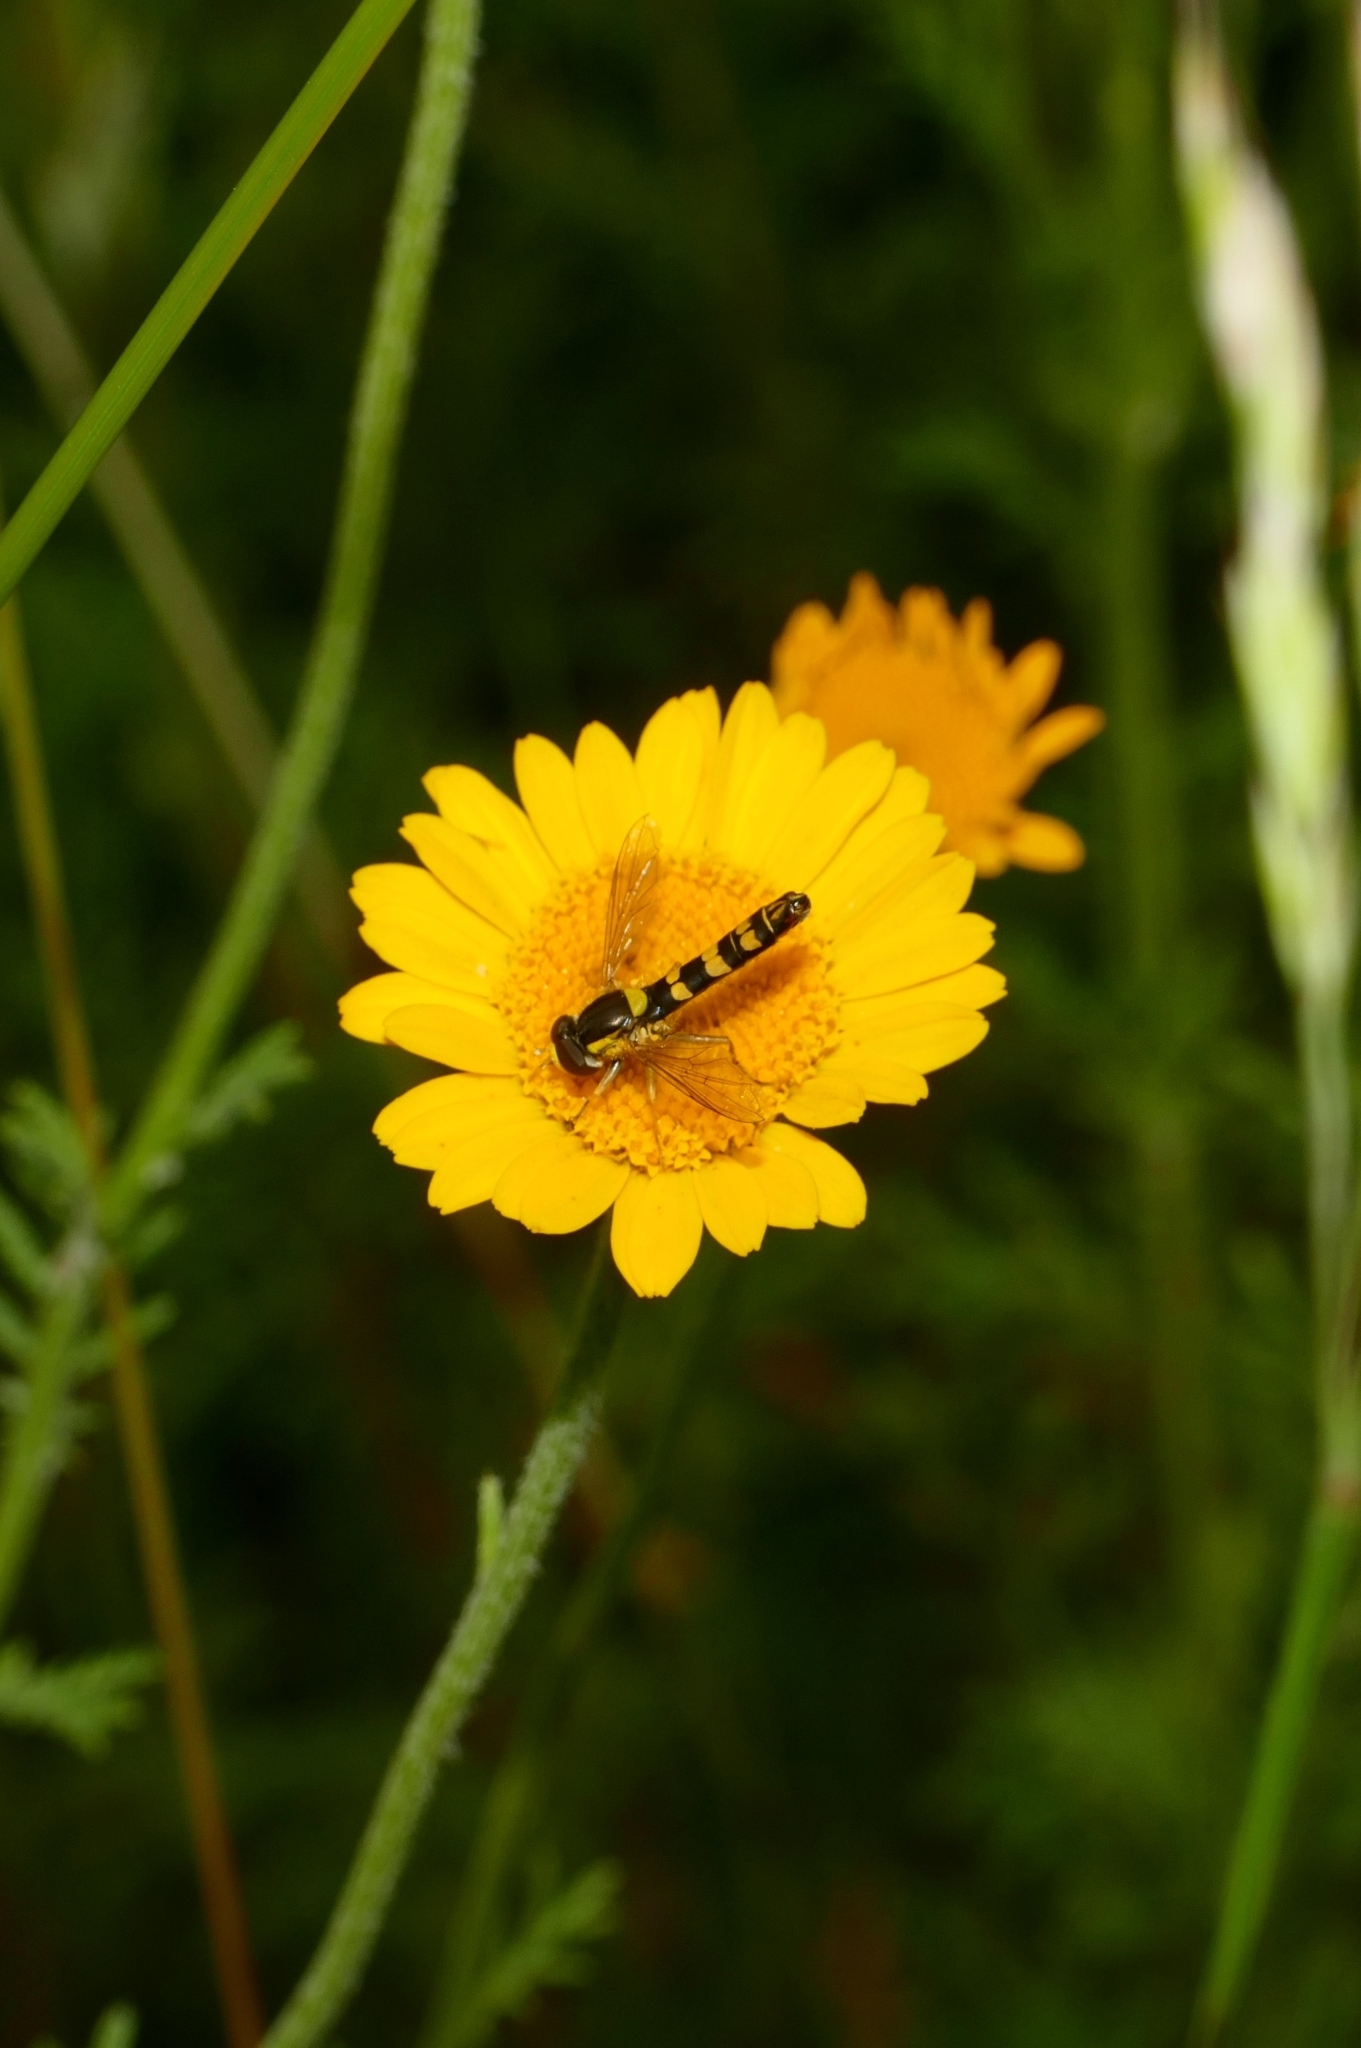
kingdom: Animalia
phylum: Arthropoda
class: Insecta
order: Diptera
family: Syrphidae
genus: Sphaerophoria
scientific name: Sphaerophoria scripta
